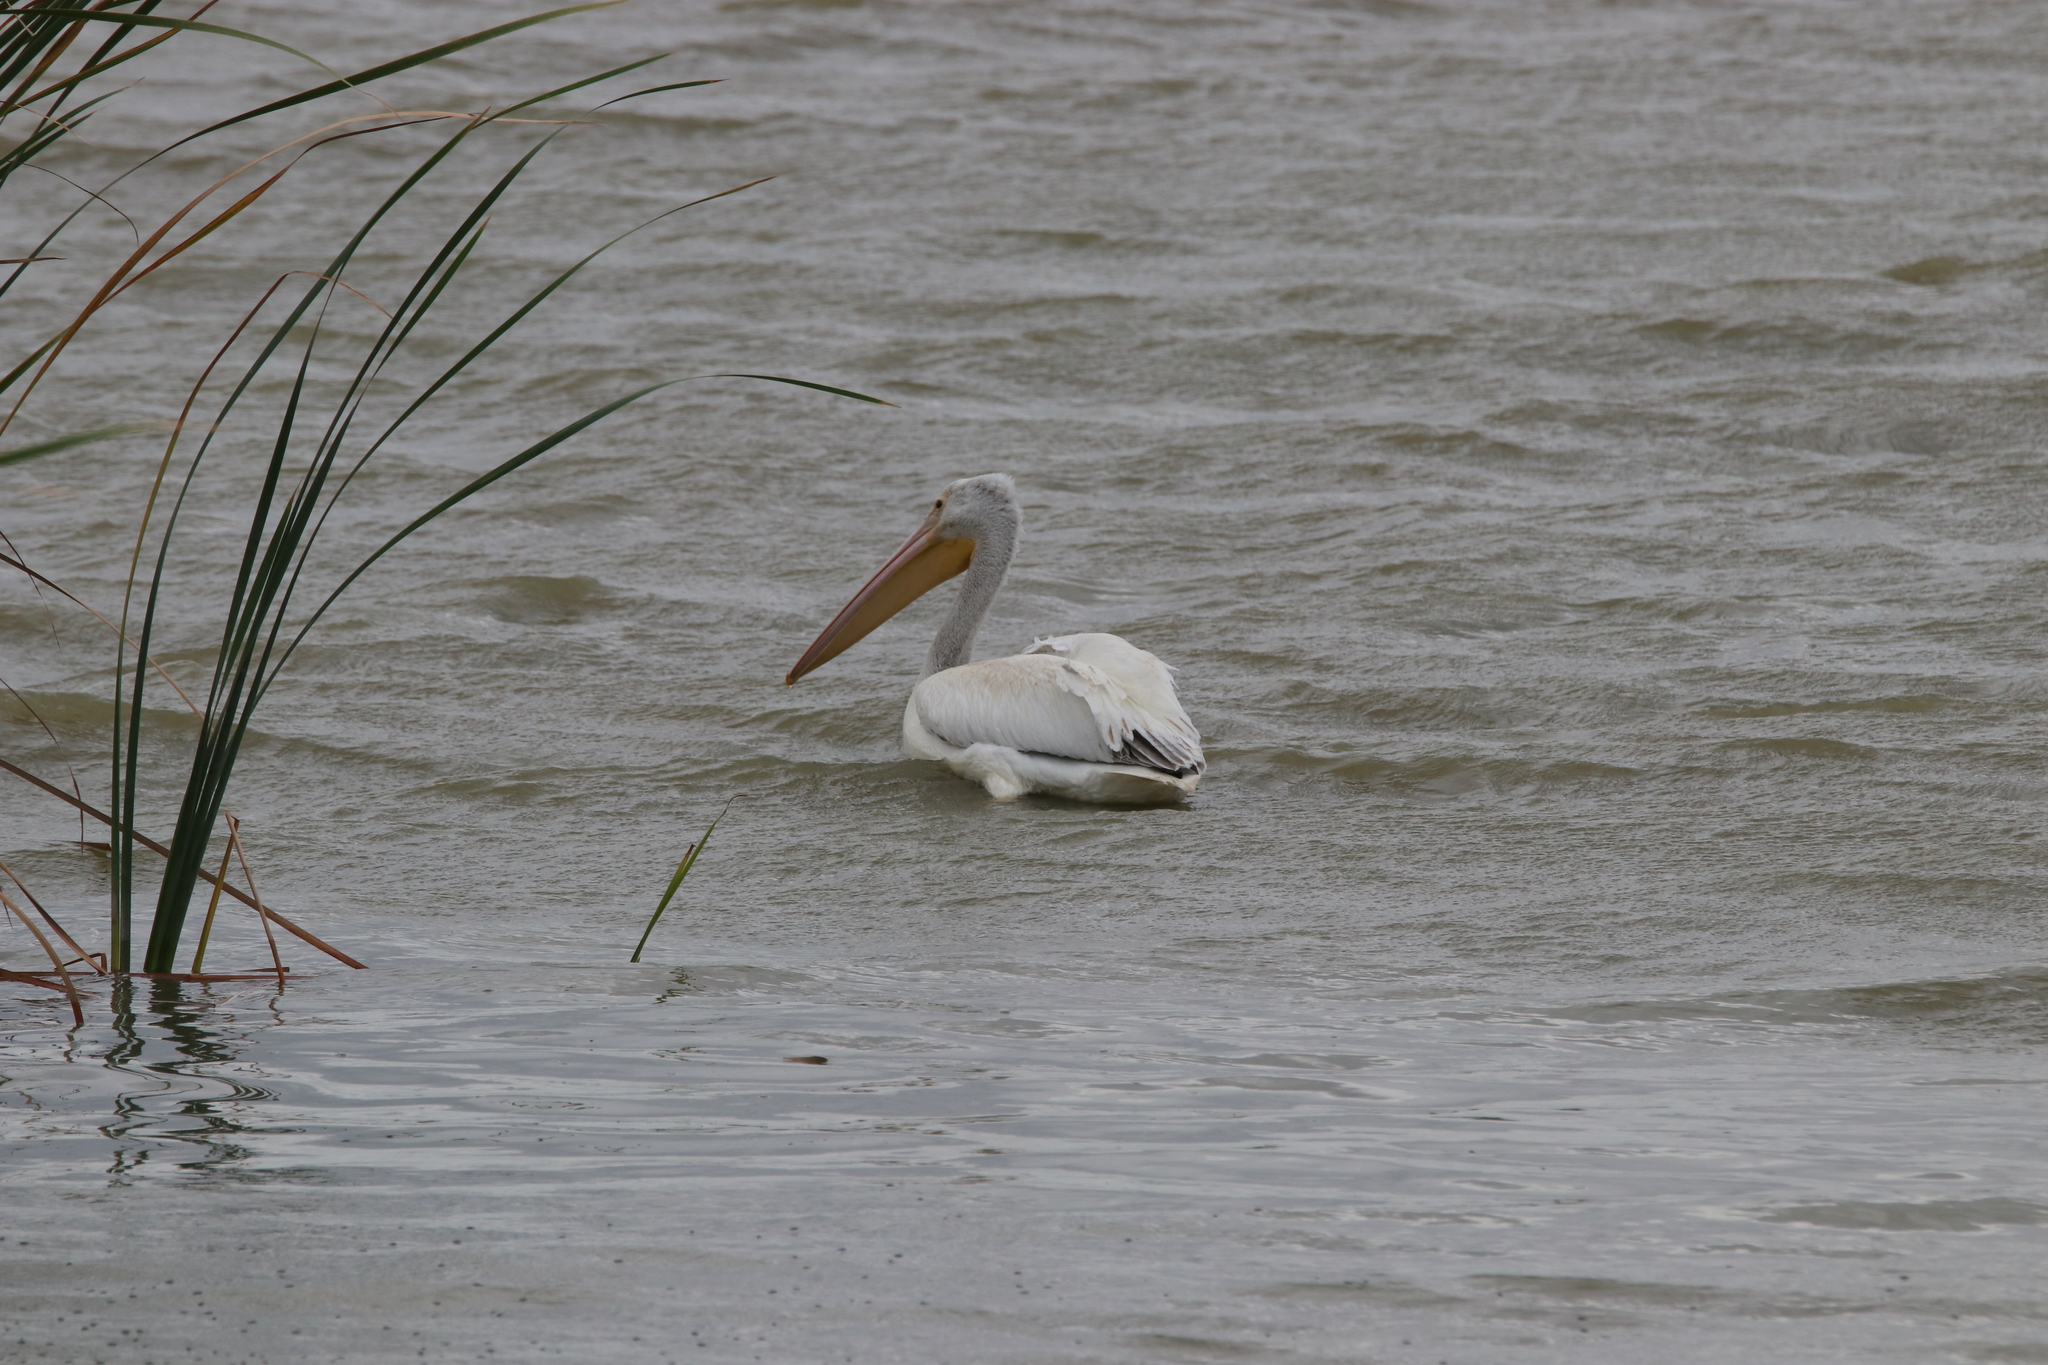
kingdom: Animalia
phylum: Chordata
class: Aves
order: Pelecaniformes
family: Pelecanidae
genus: Pelecanus
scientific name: Pelecanus erythrorhynchos
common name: American white pelican
